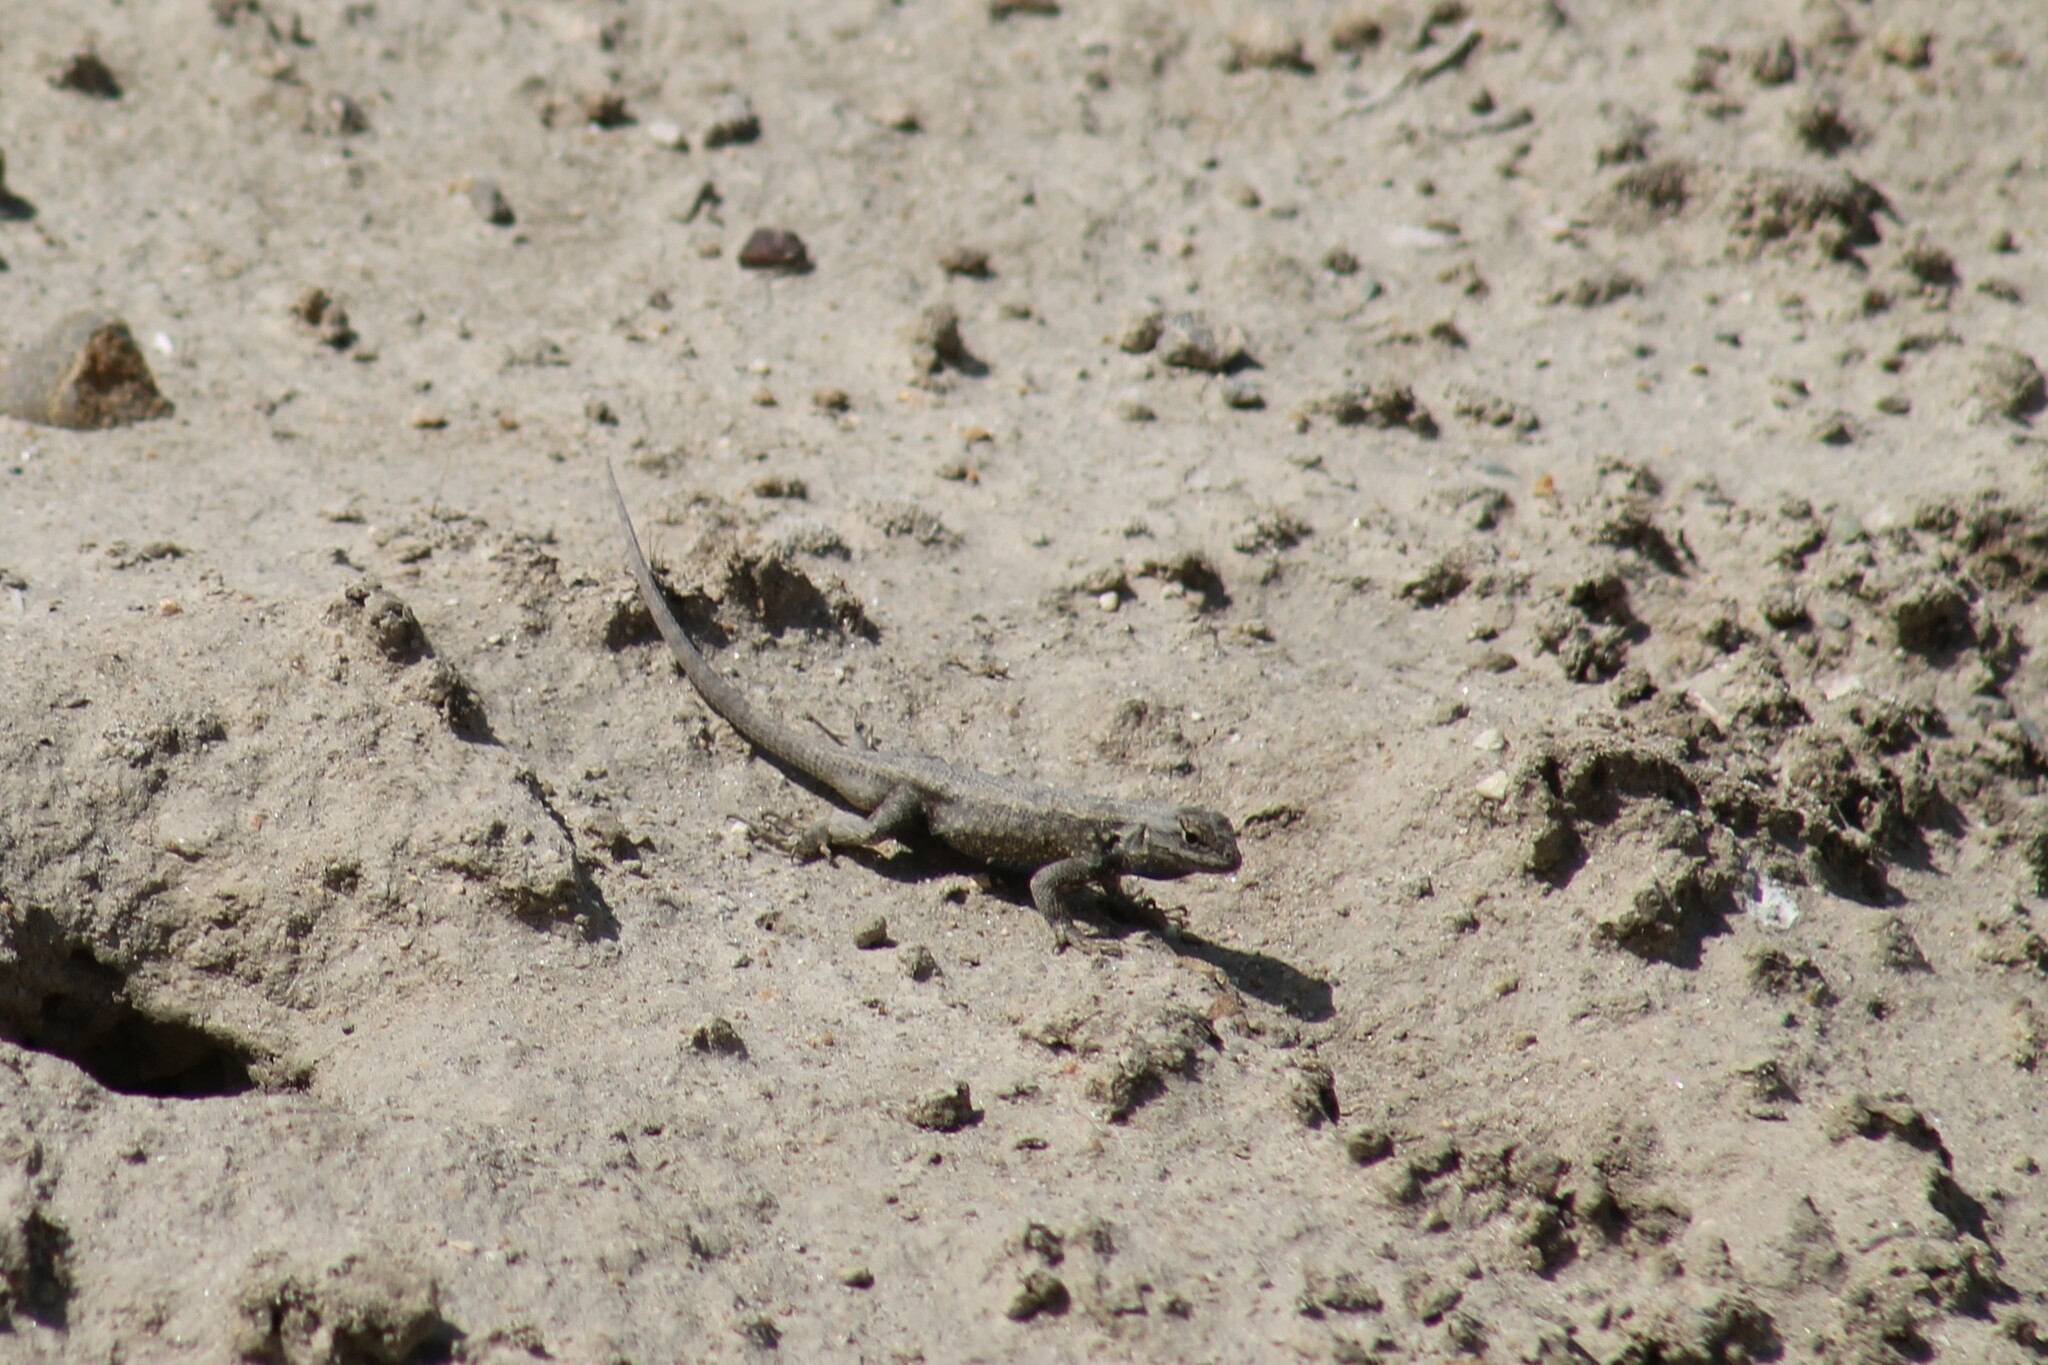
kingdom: Animalia
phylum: Chordata
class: Squamata
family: Phrynosomatidae
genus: Sceloporus
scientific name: Sceloporus occidentalis
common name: Western fence lizard
